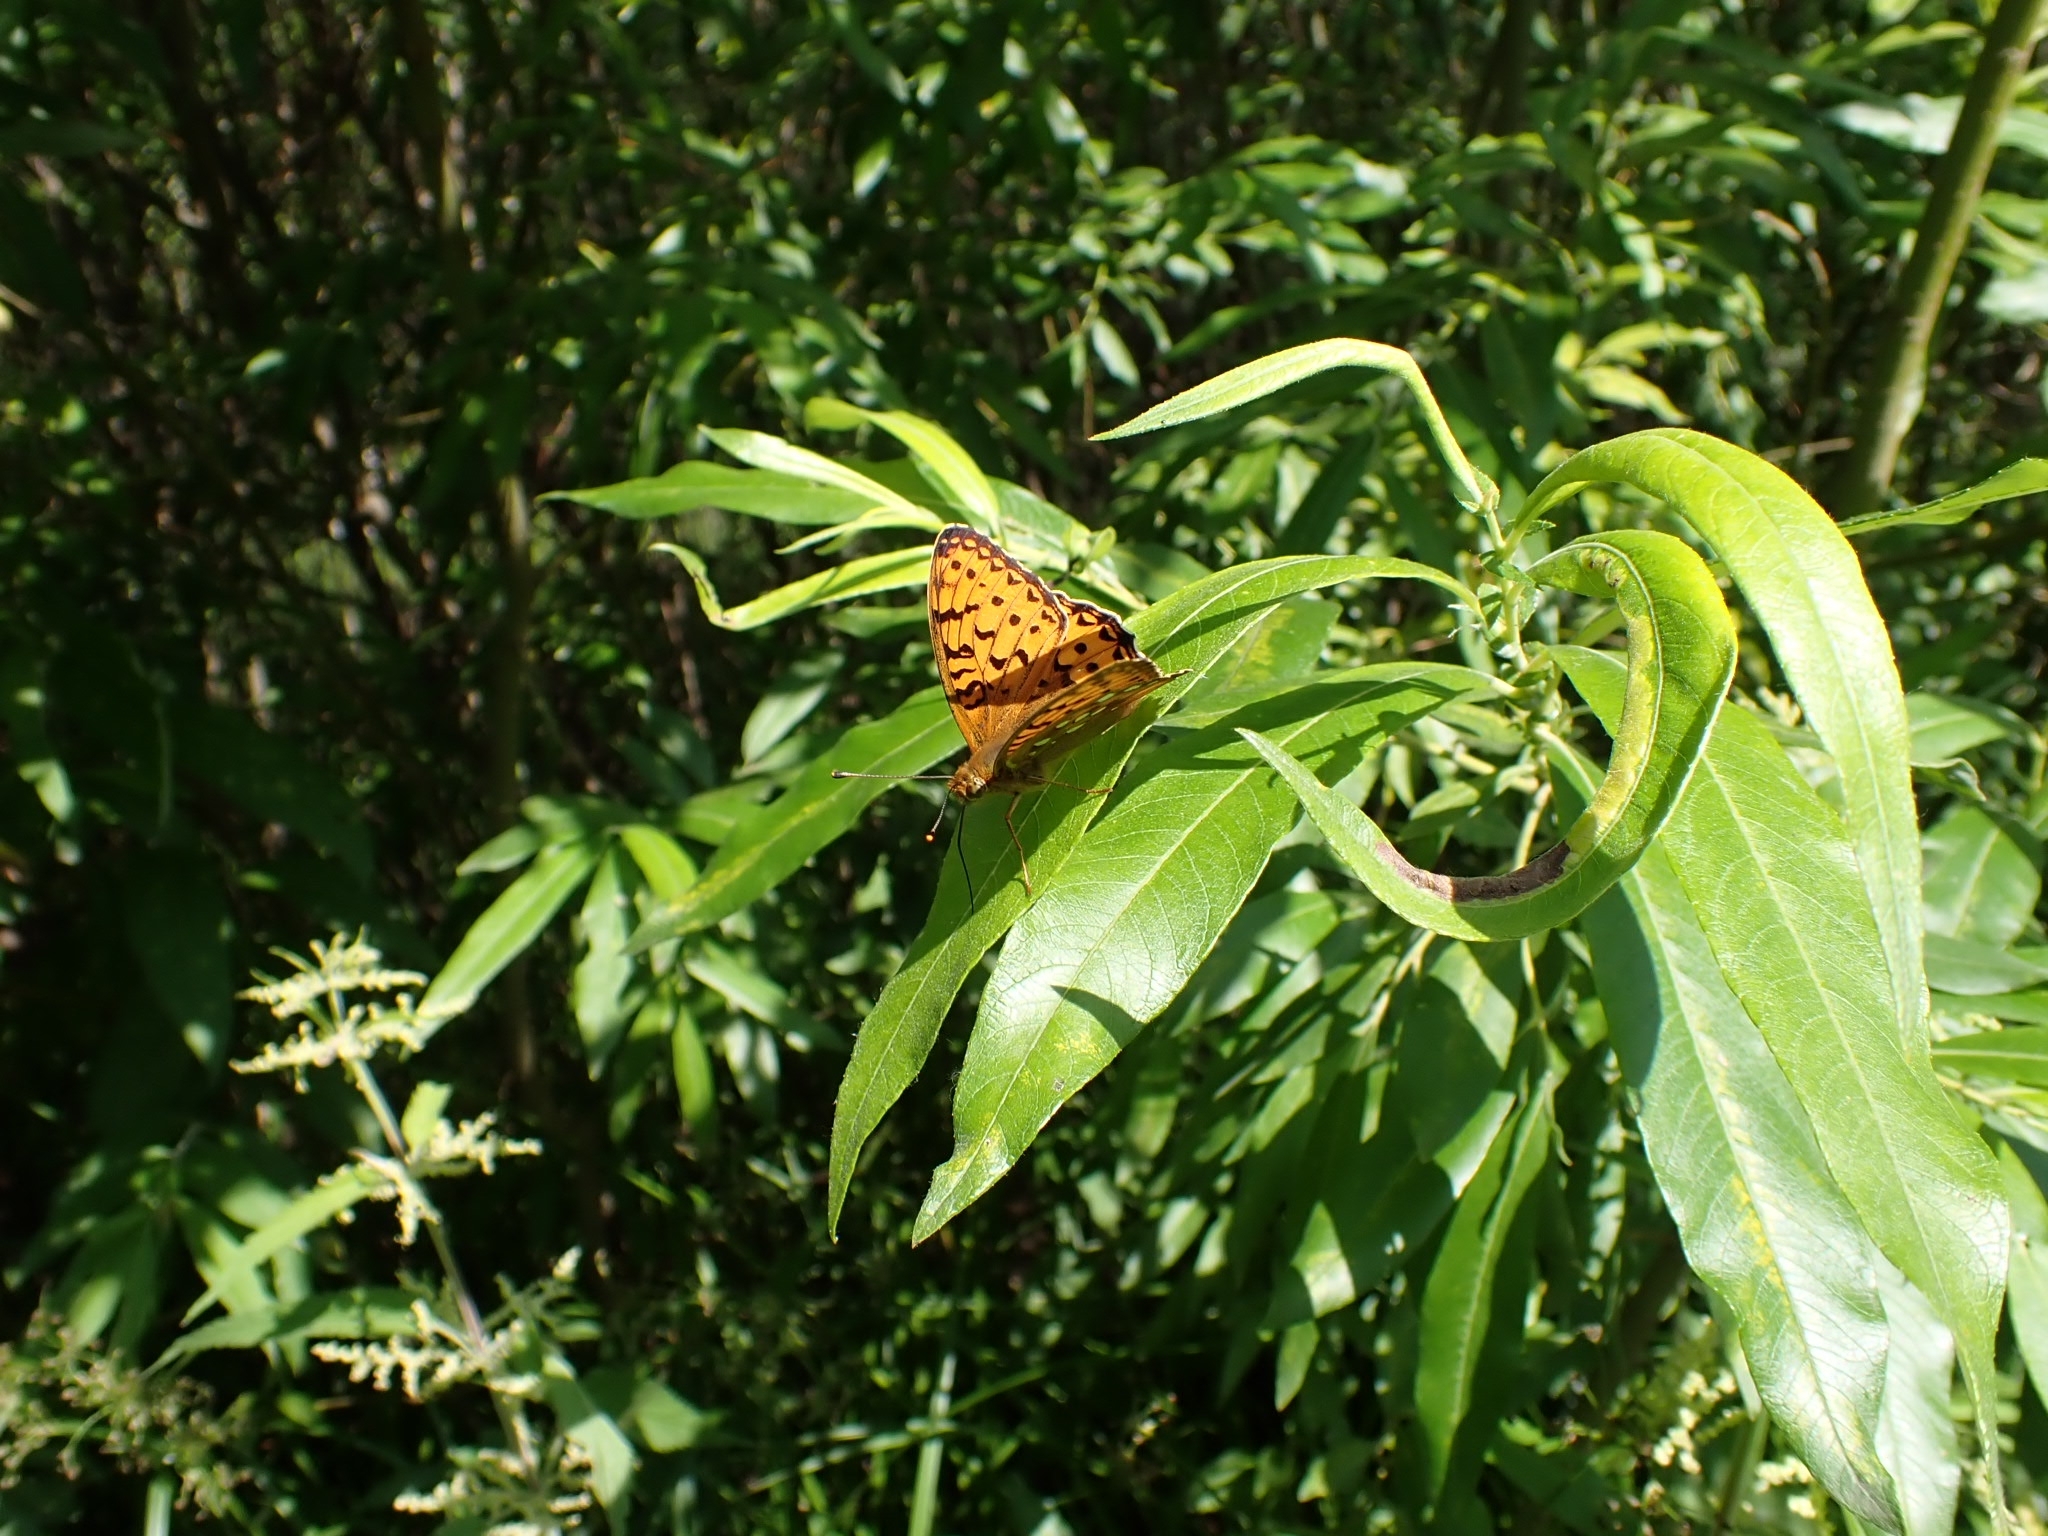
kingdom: Animalia
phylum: Arthropoda
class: Insecta
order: Lepidoptera
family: Nymphalidae
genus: Speyeria
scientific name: Speyeria aglaja
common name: Dark green fritillary
